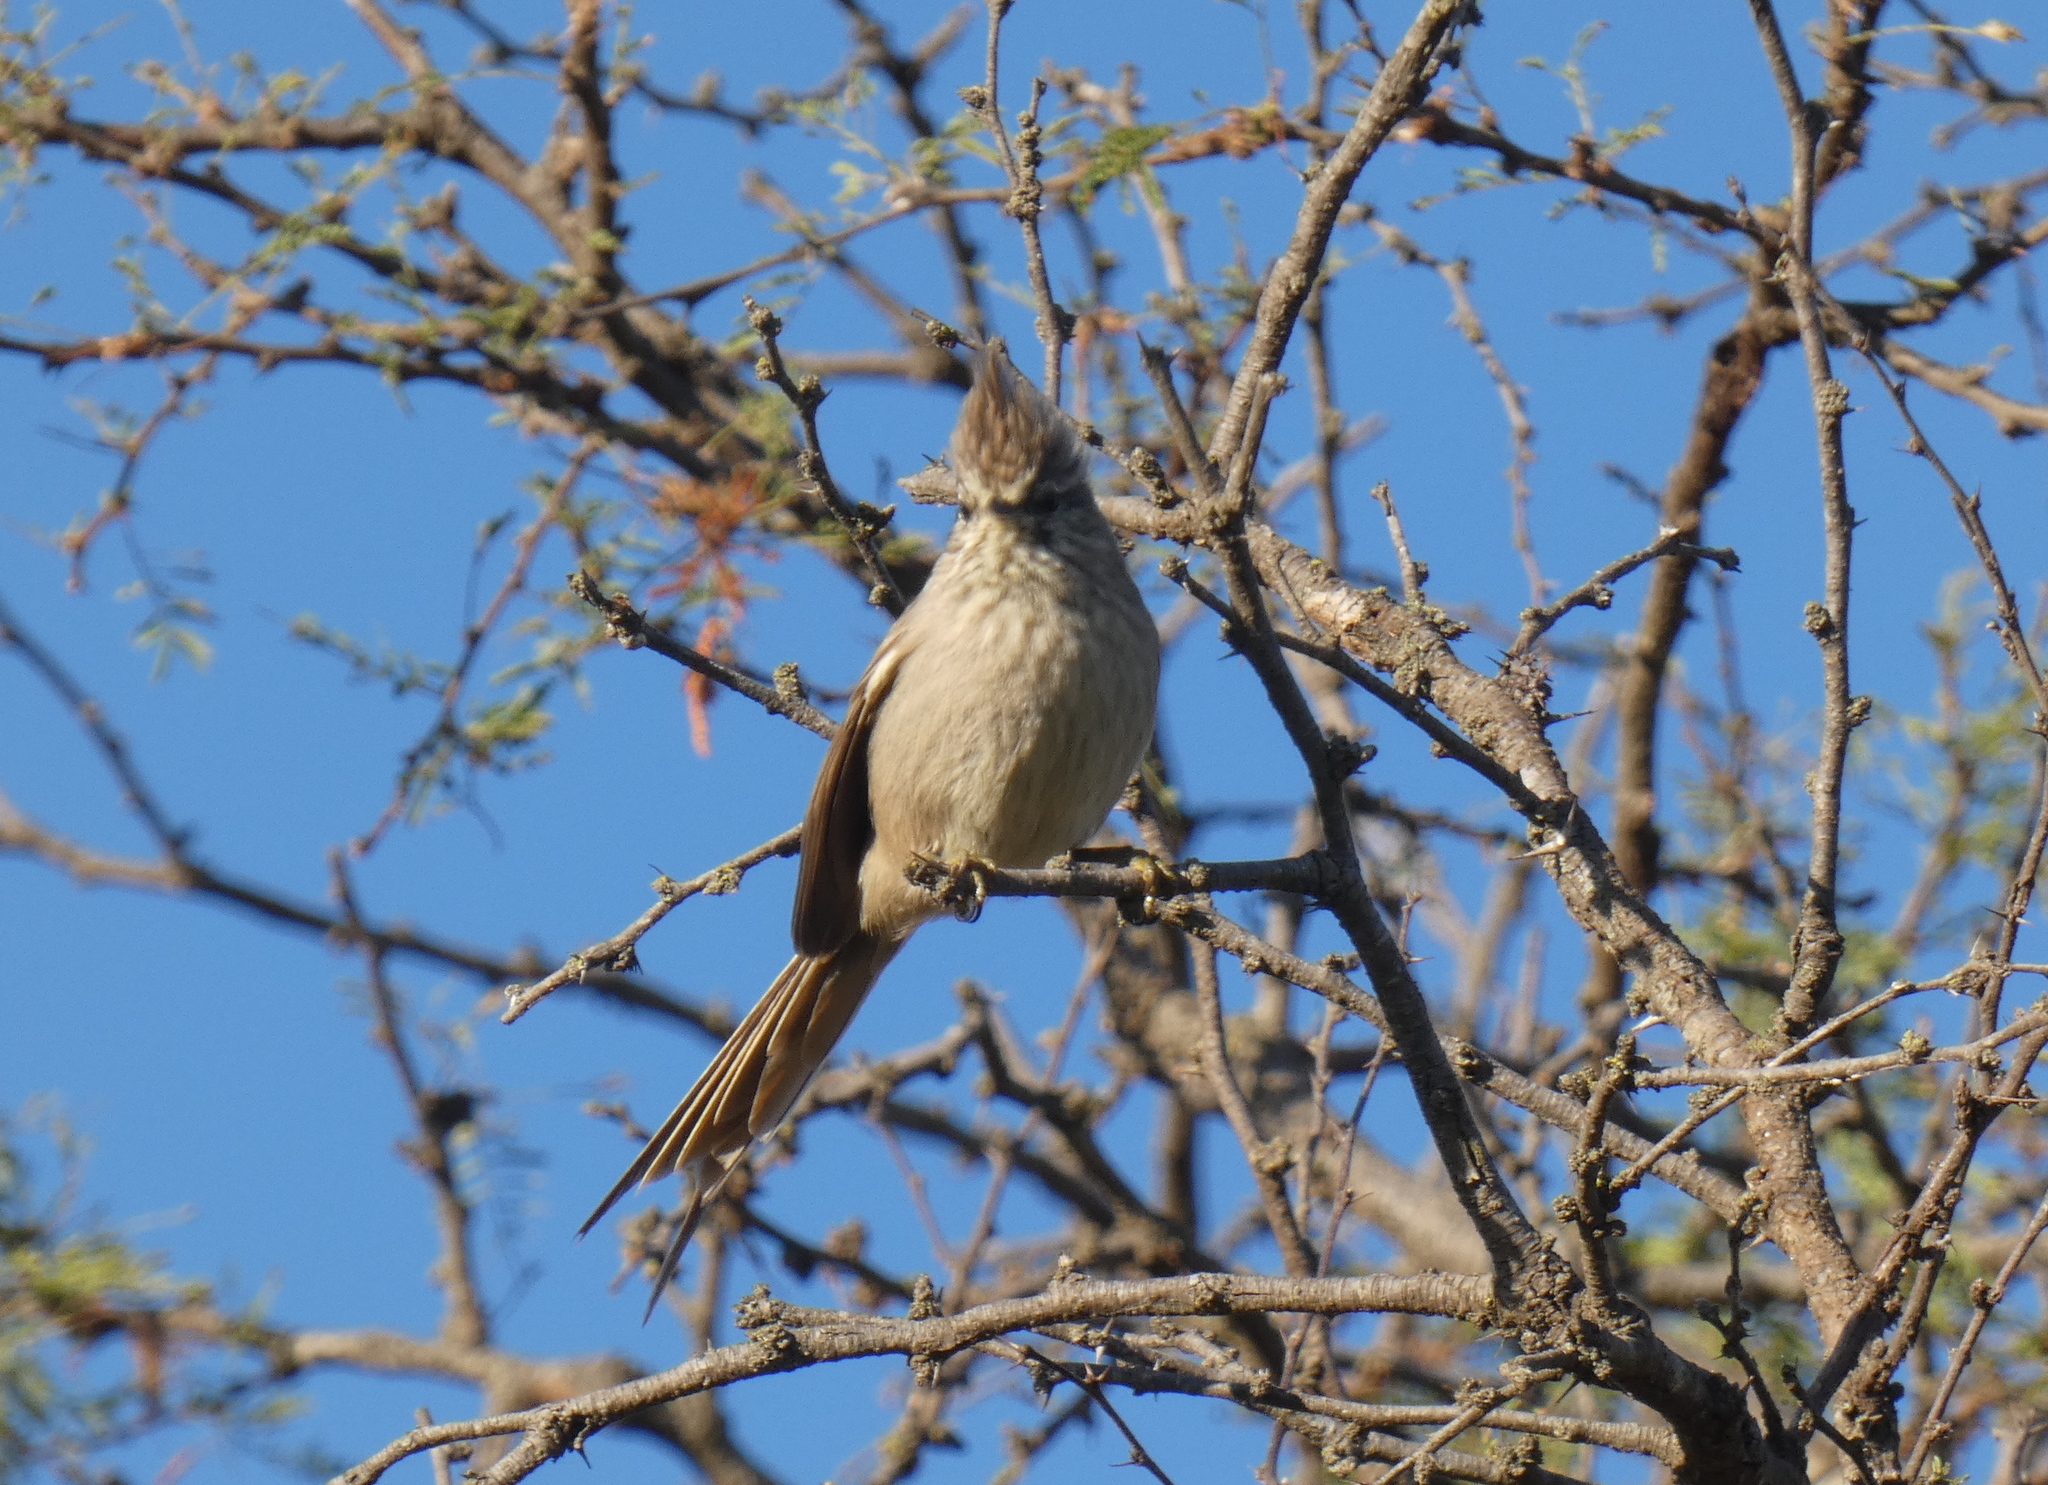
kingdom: Animalia
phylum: Chordata
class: Aves
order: Passeriformes
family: Furnariidae
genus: Leptasthenura
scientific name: Leptasthenura platensis
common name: Tufted tit-spinetail
